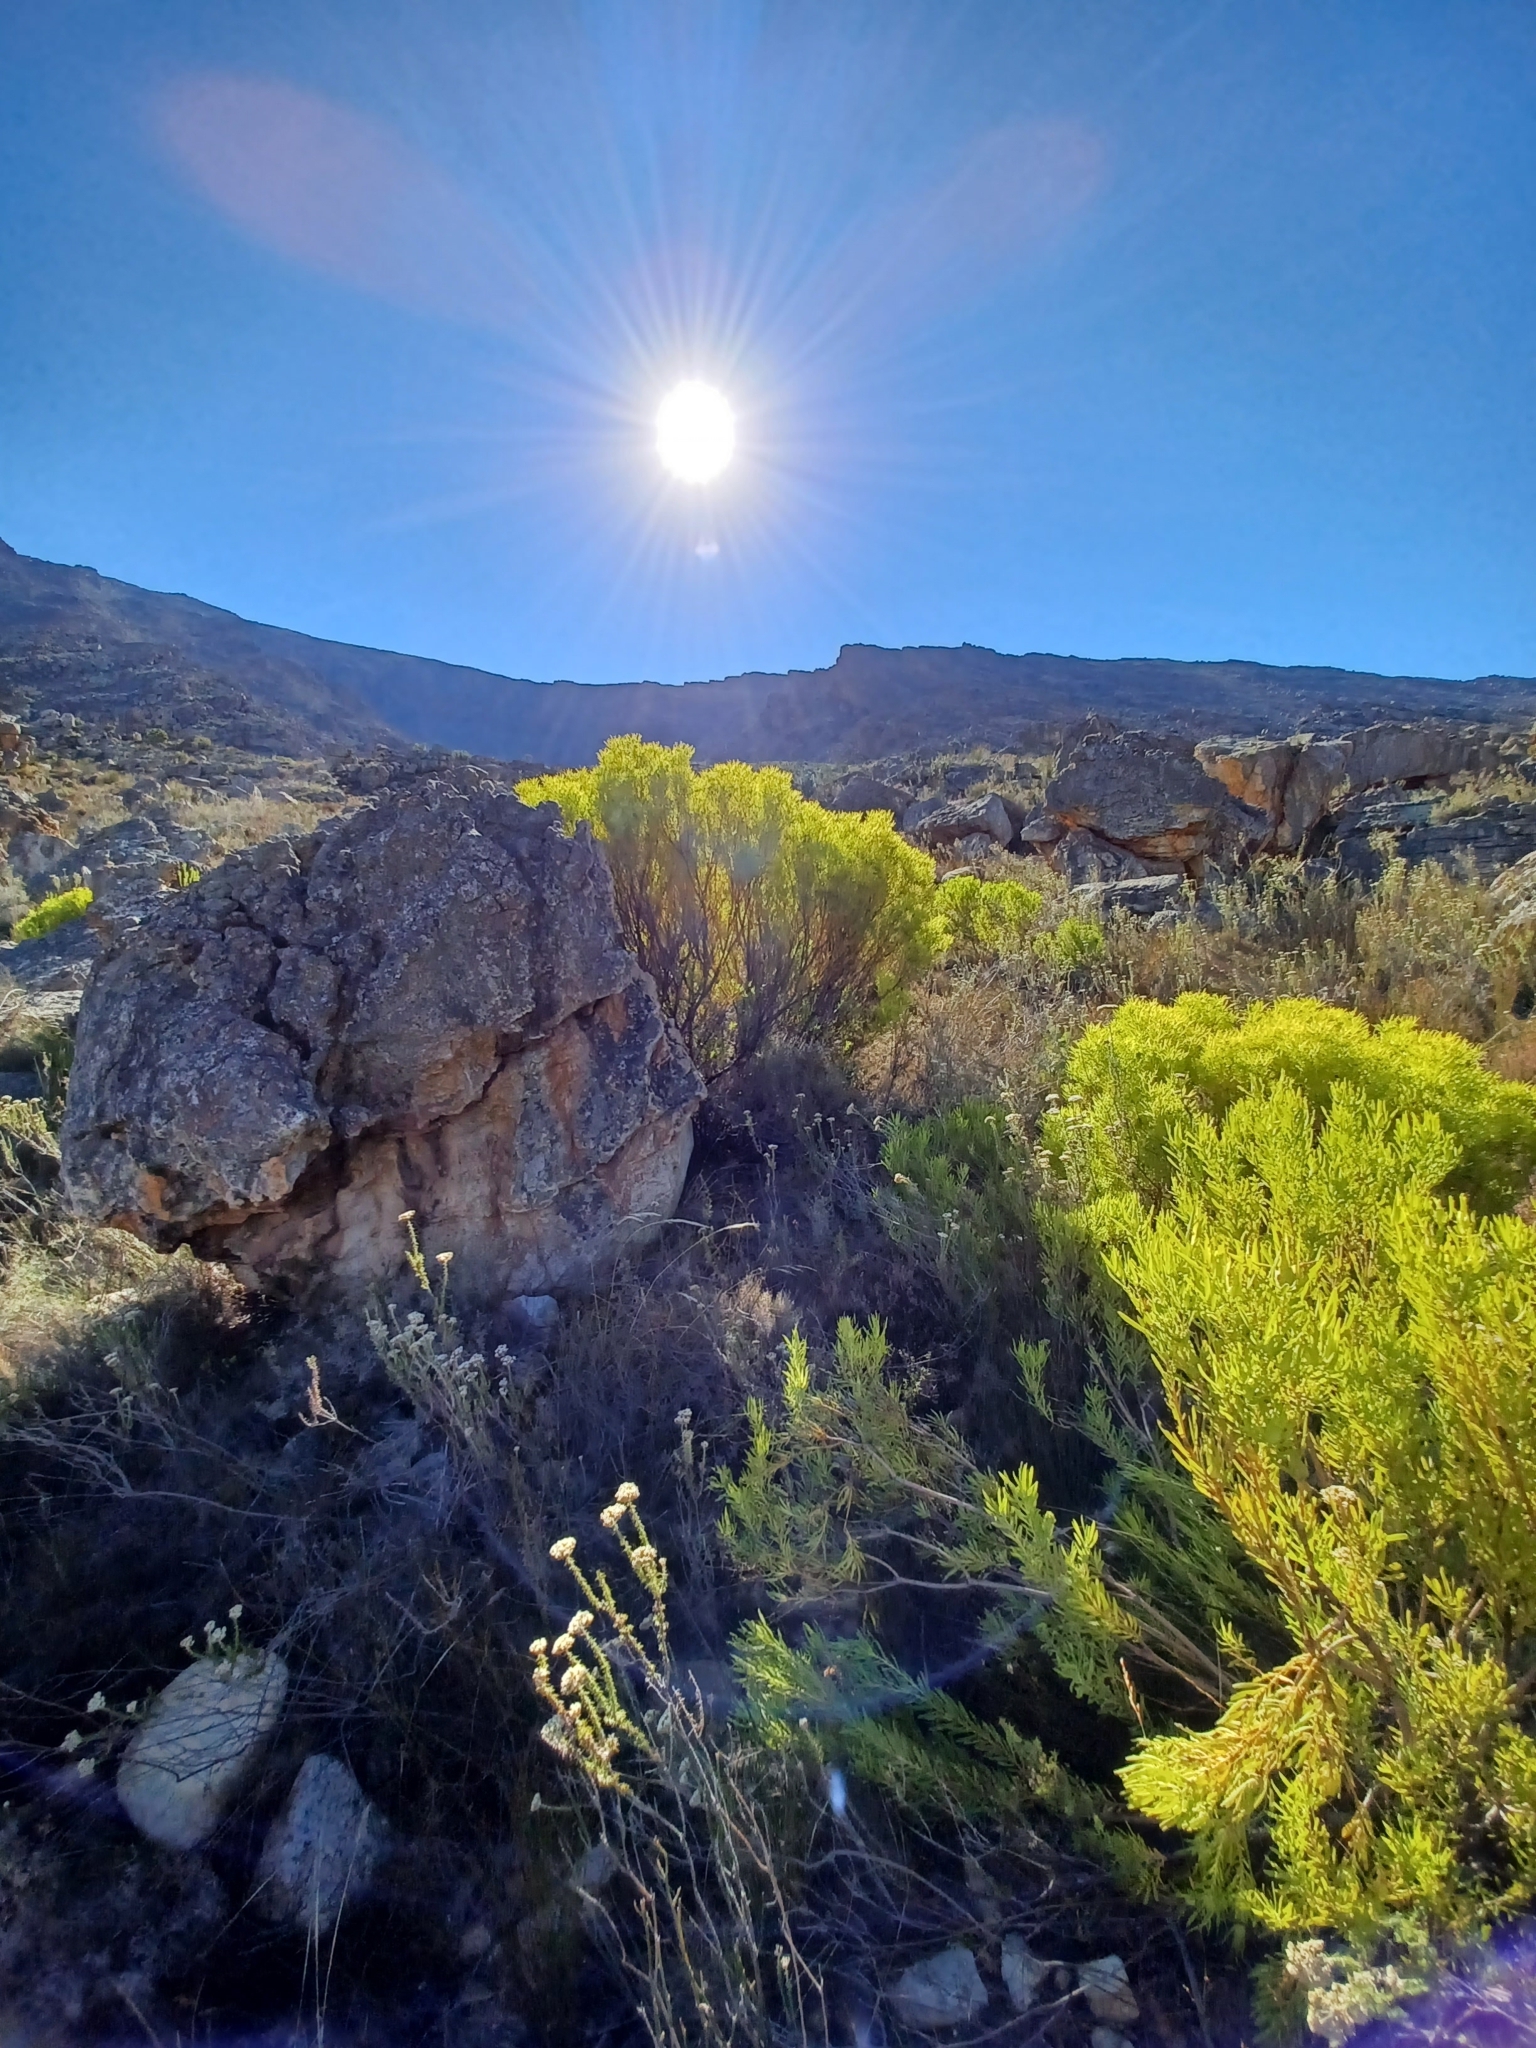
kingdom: Plantae
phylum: Tracheophyta
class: Magnoliopsida
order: Proteales
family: Proteaceae
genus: Leucadendron
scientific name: Leucadendron salignum
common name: Common sunshine conebush
